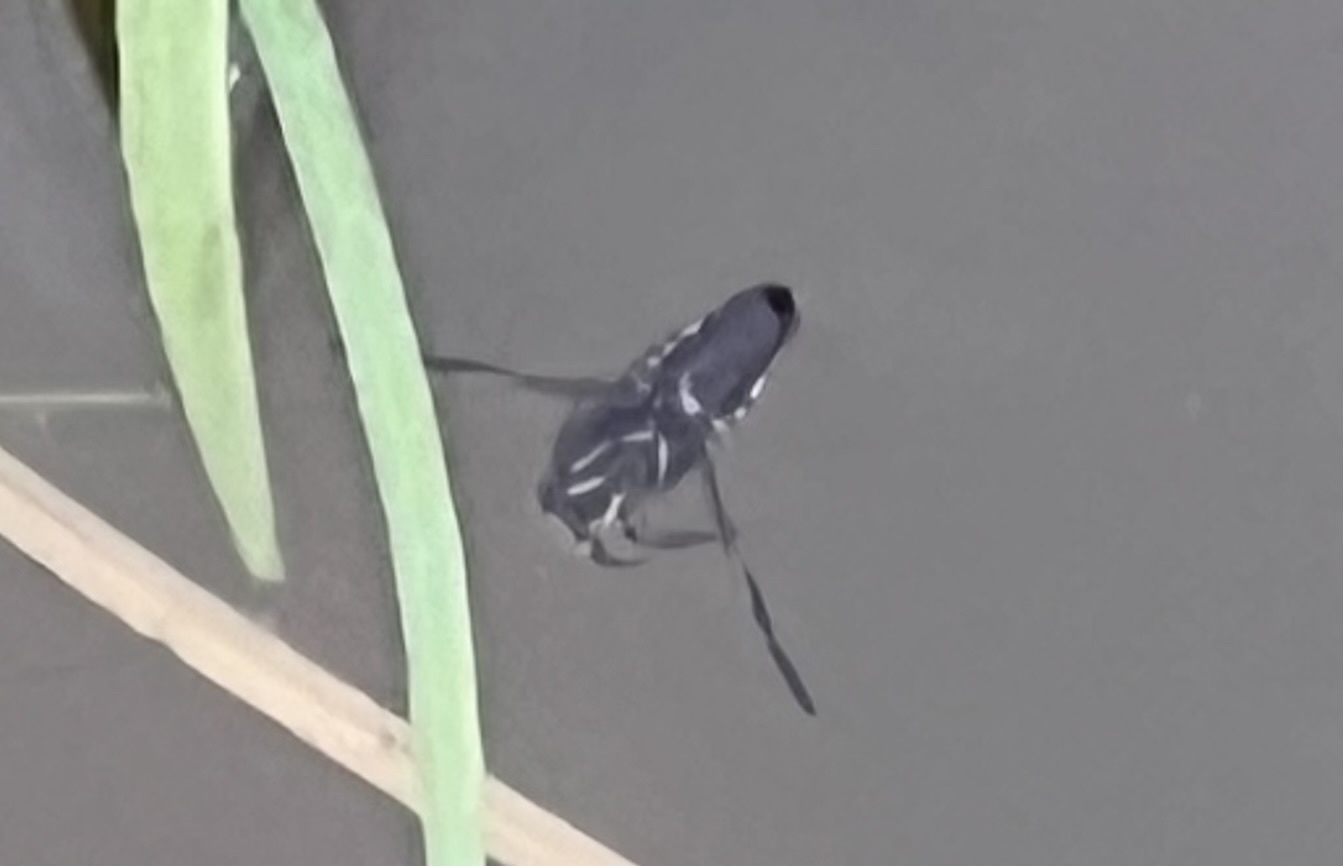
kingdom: Animalia
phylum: Arthropoda
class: Insecta
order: Hemiptera
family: Notonectidae
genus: Notonecta
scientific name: Notonecta
